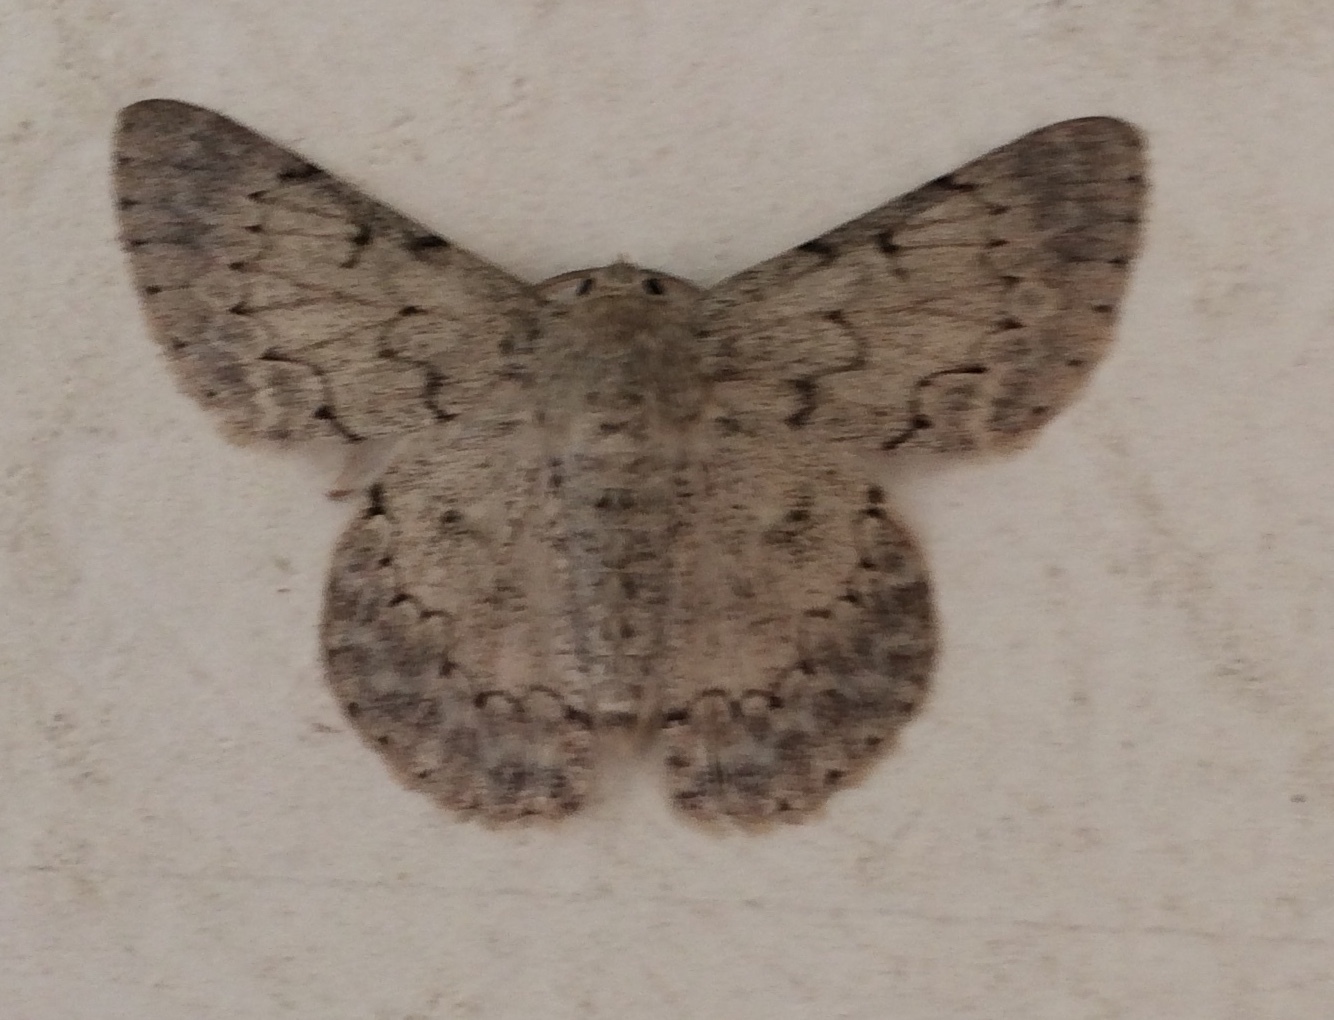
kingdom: Animalia
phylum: Arthropoda
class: Insecta
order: Lepidoptera
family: Geometridae
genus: Pingasa
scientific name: Pingasa chlora
